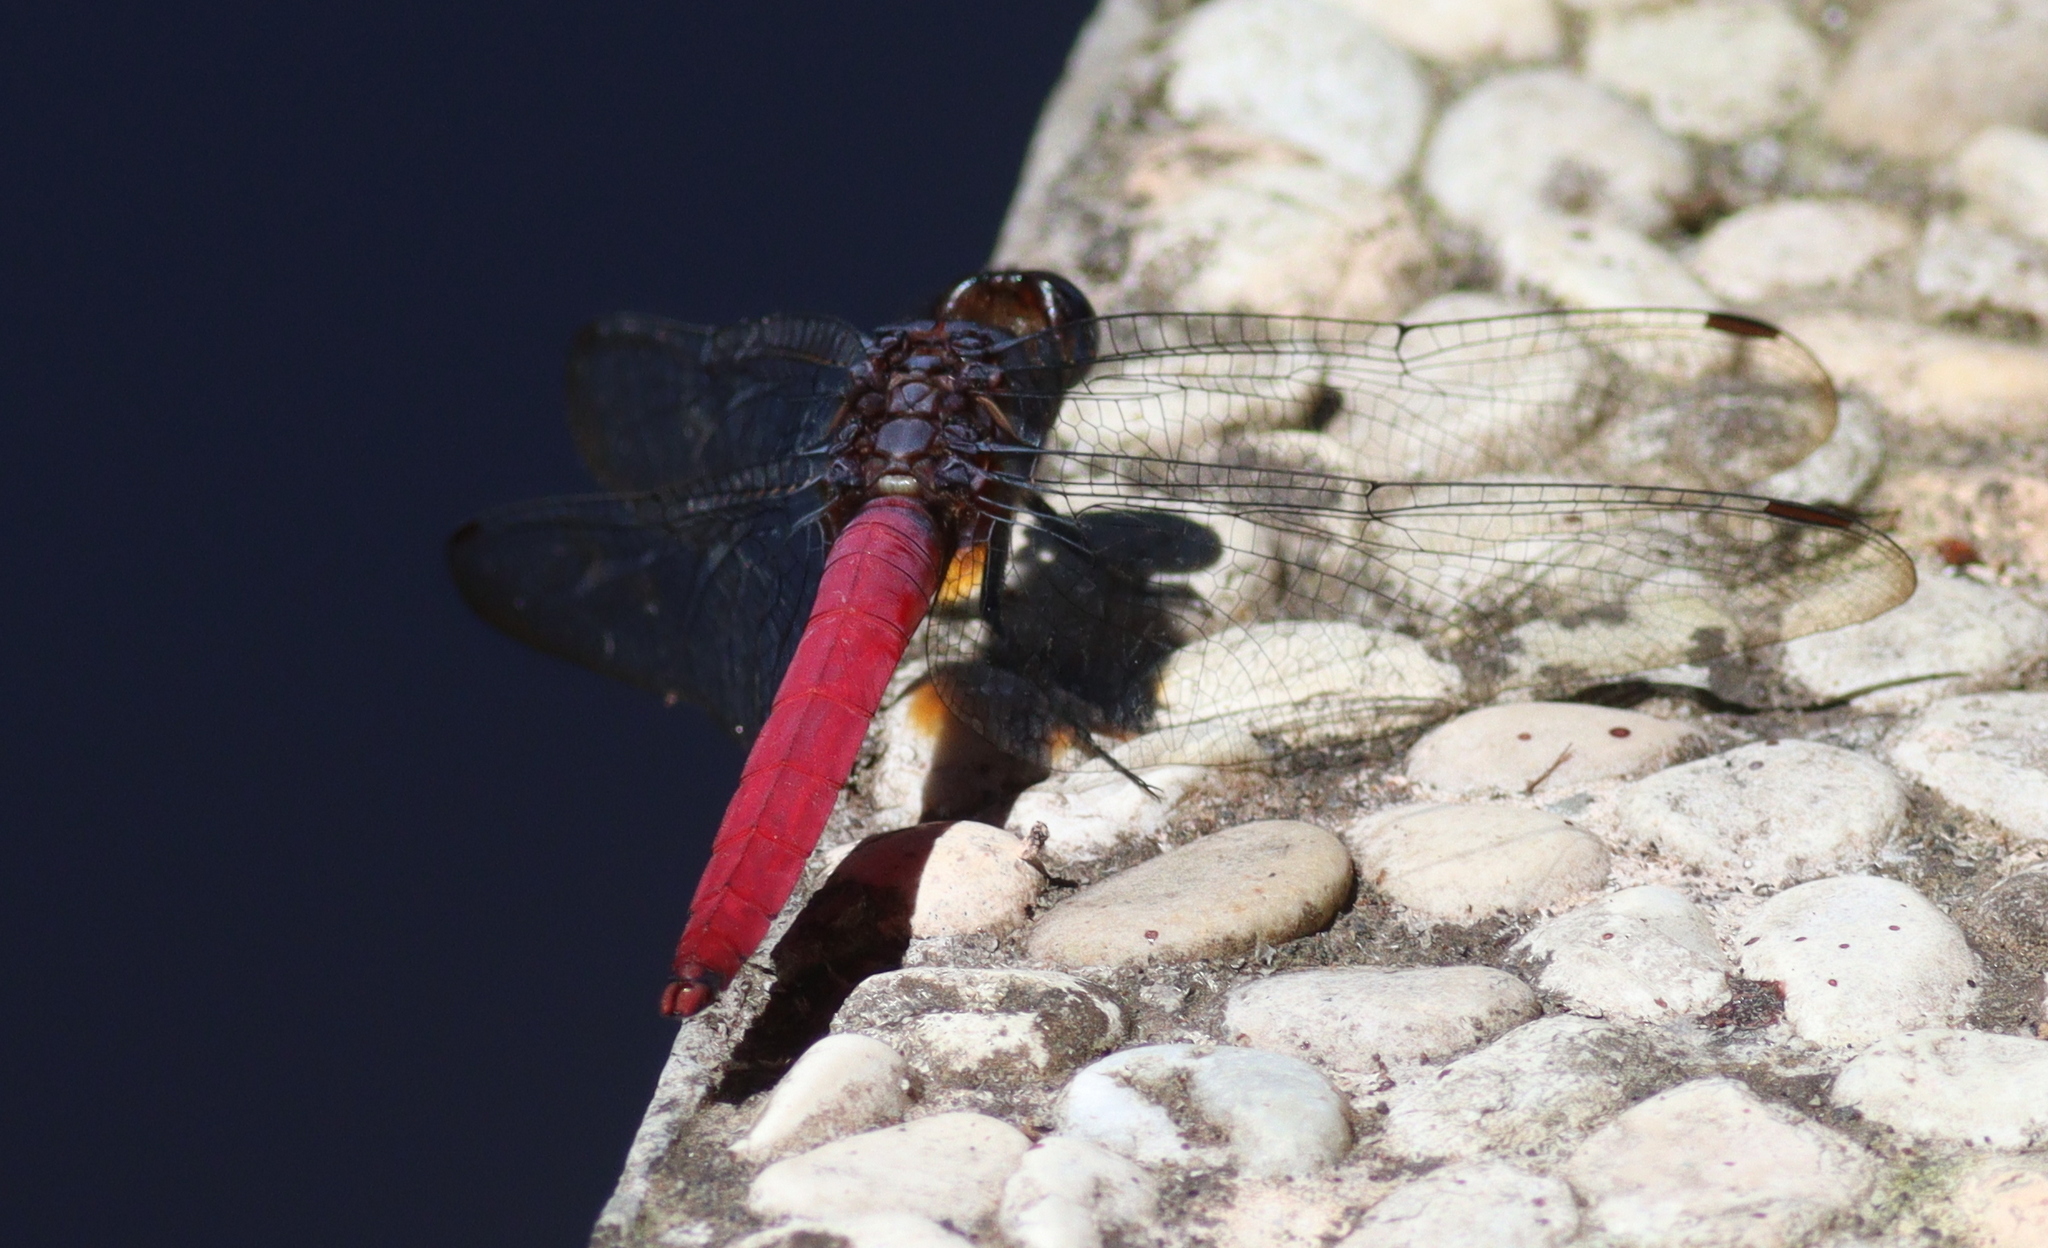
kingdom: Animalia
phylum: Arthropoda
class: Insecta
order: Odonata
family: Libellulidae
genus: Orthetrum
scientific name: Orthetrum pruinosum
